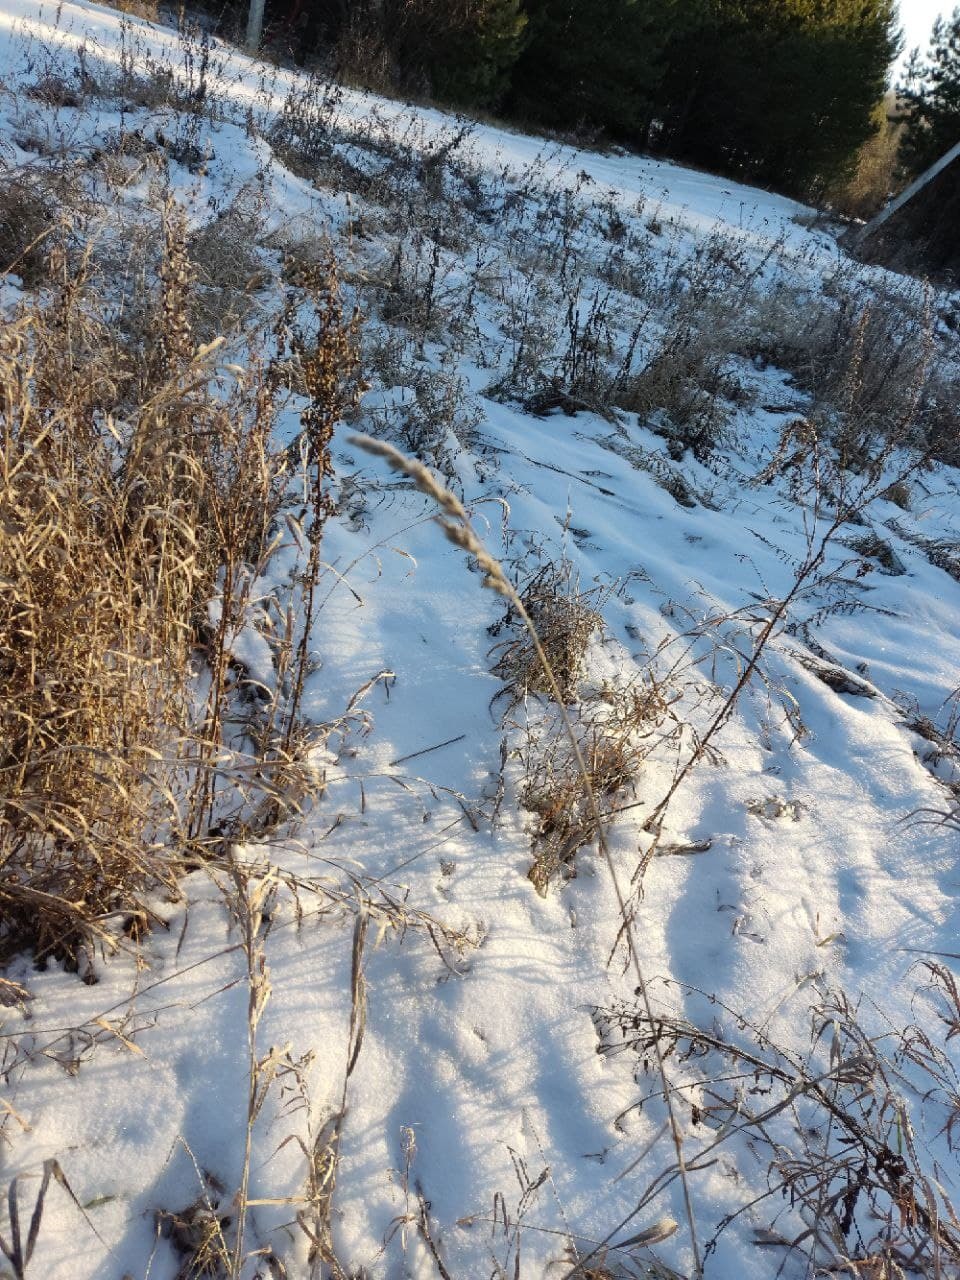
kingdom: Plantae
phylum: Tracheophyta
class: Liliopsida
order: Poales
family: Poaceae
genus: Dactylis
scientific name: Dactylis glomerata
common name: Orchardgrass
